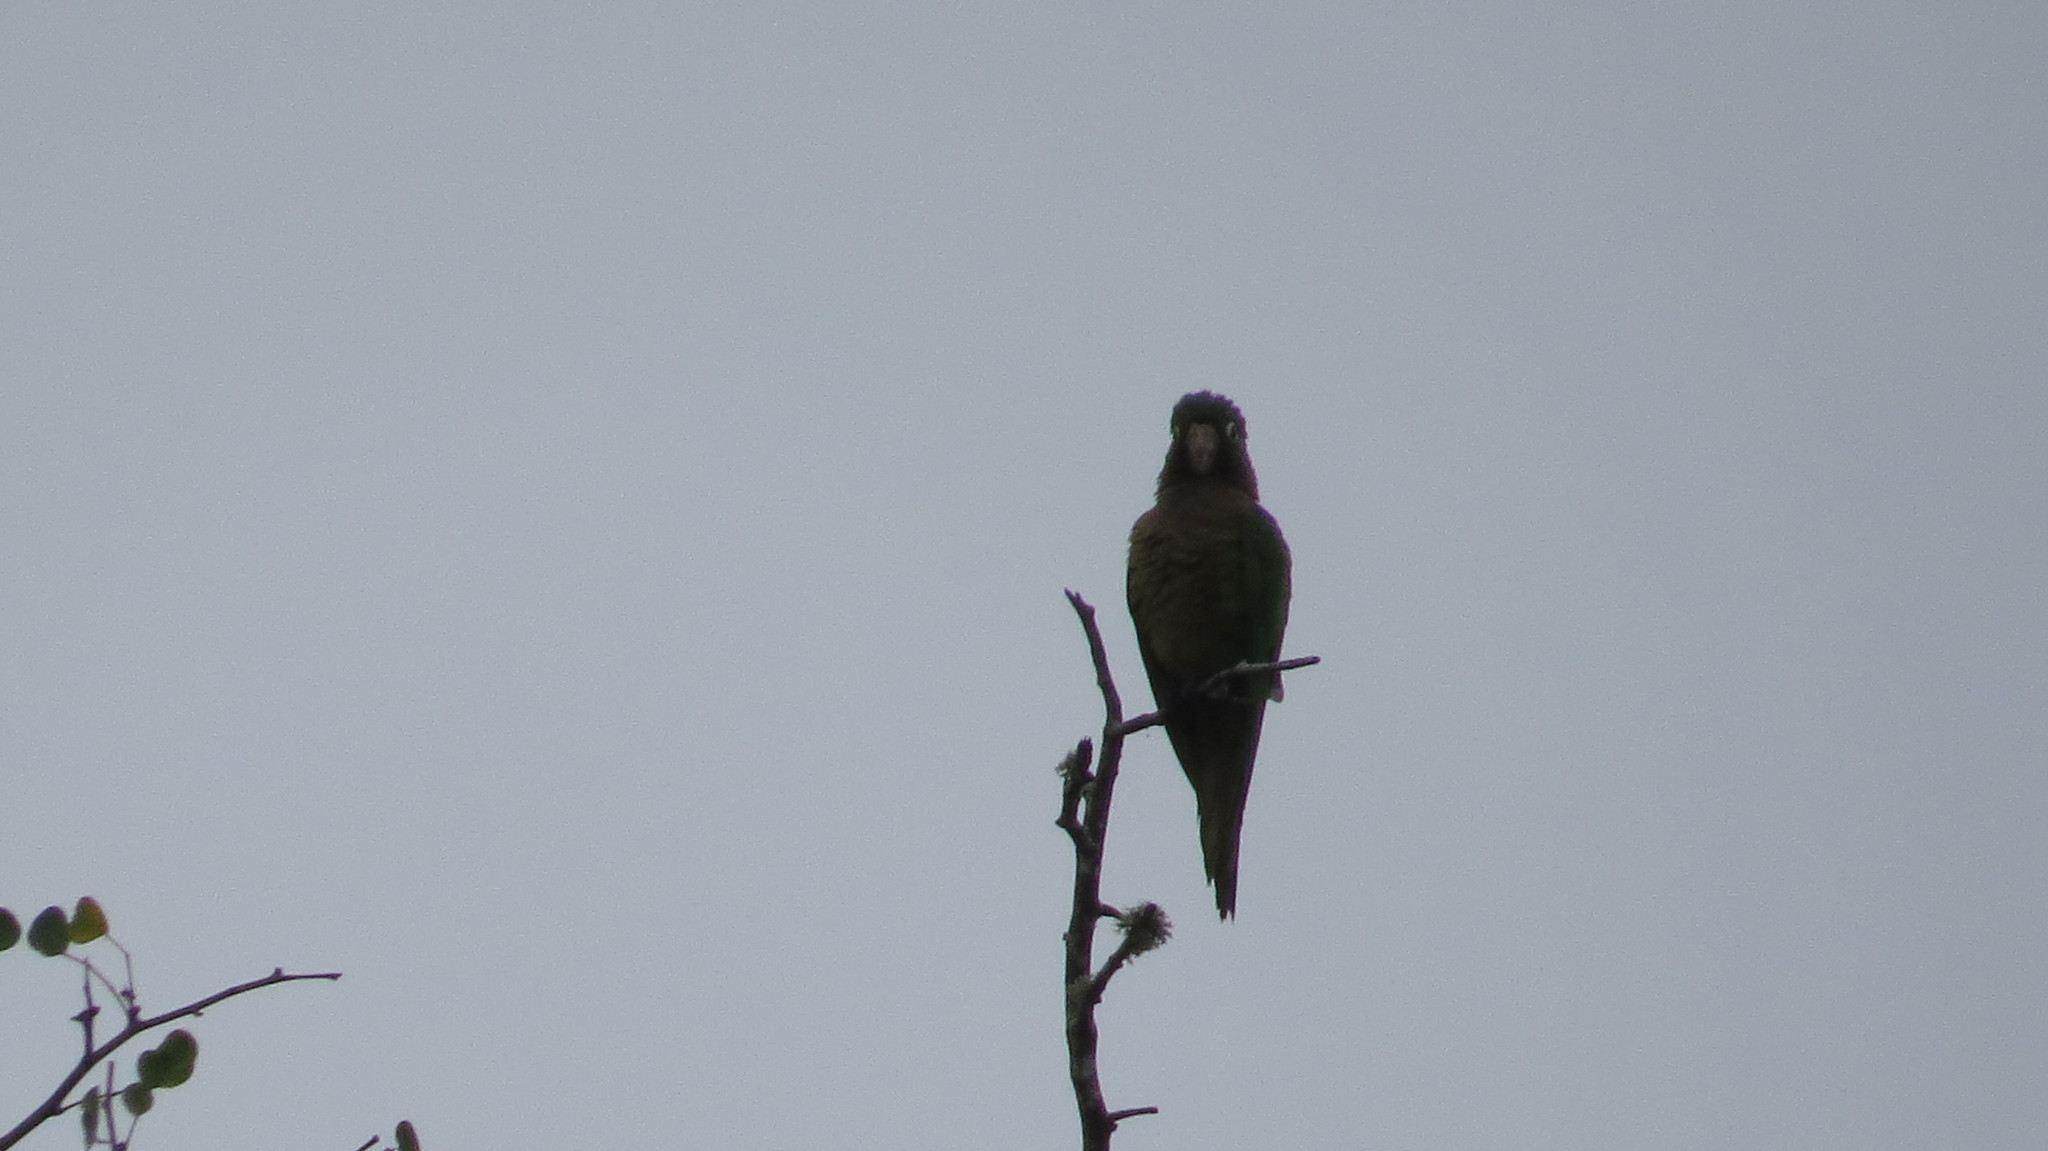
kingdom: Animalia
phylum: Chordata
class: Aves
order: Psittaciformes
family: Psittacidae
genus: Aratinga
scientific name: Aratinga nana
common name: Olive-throated parakeet
